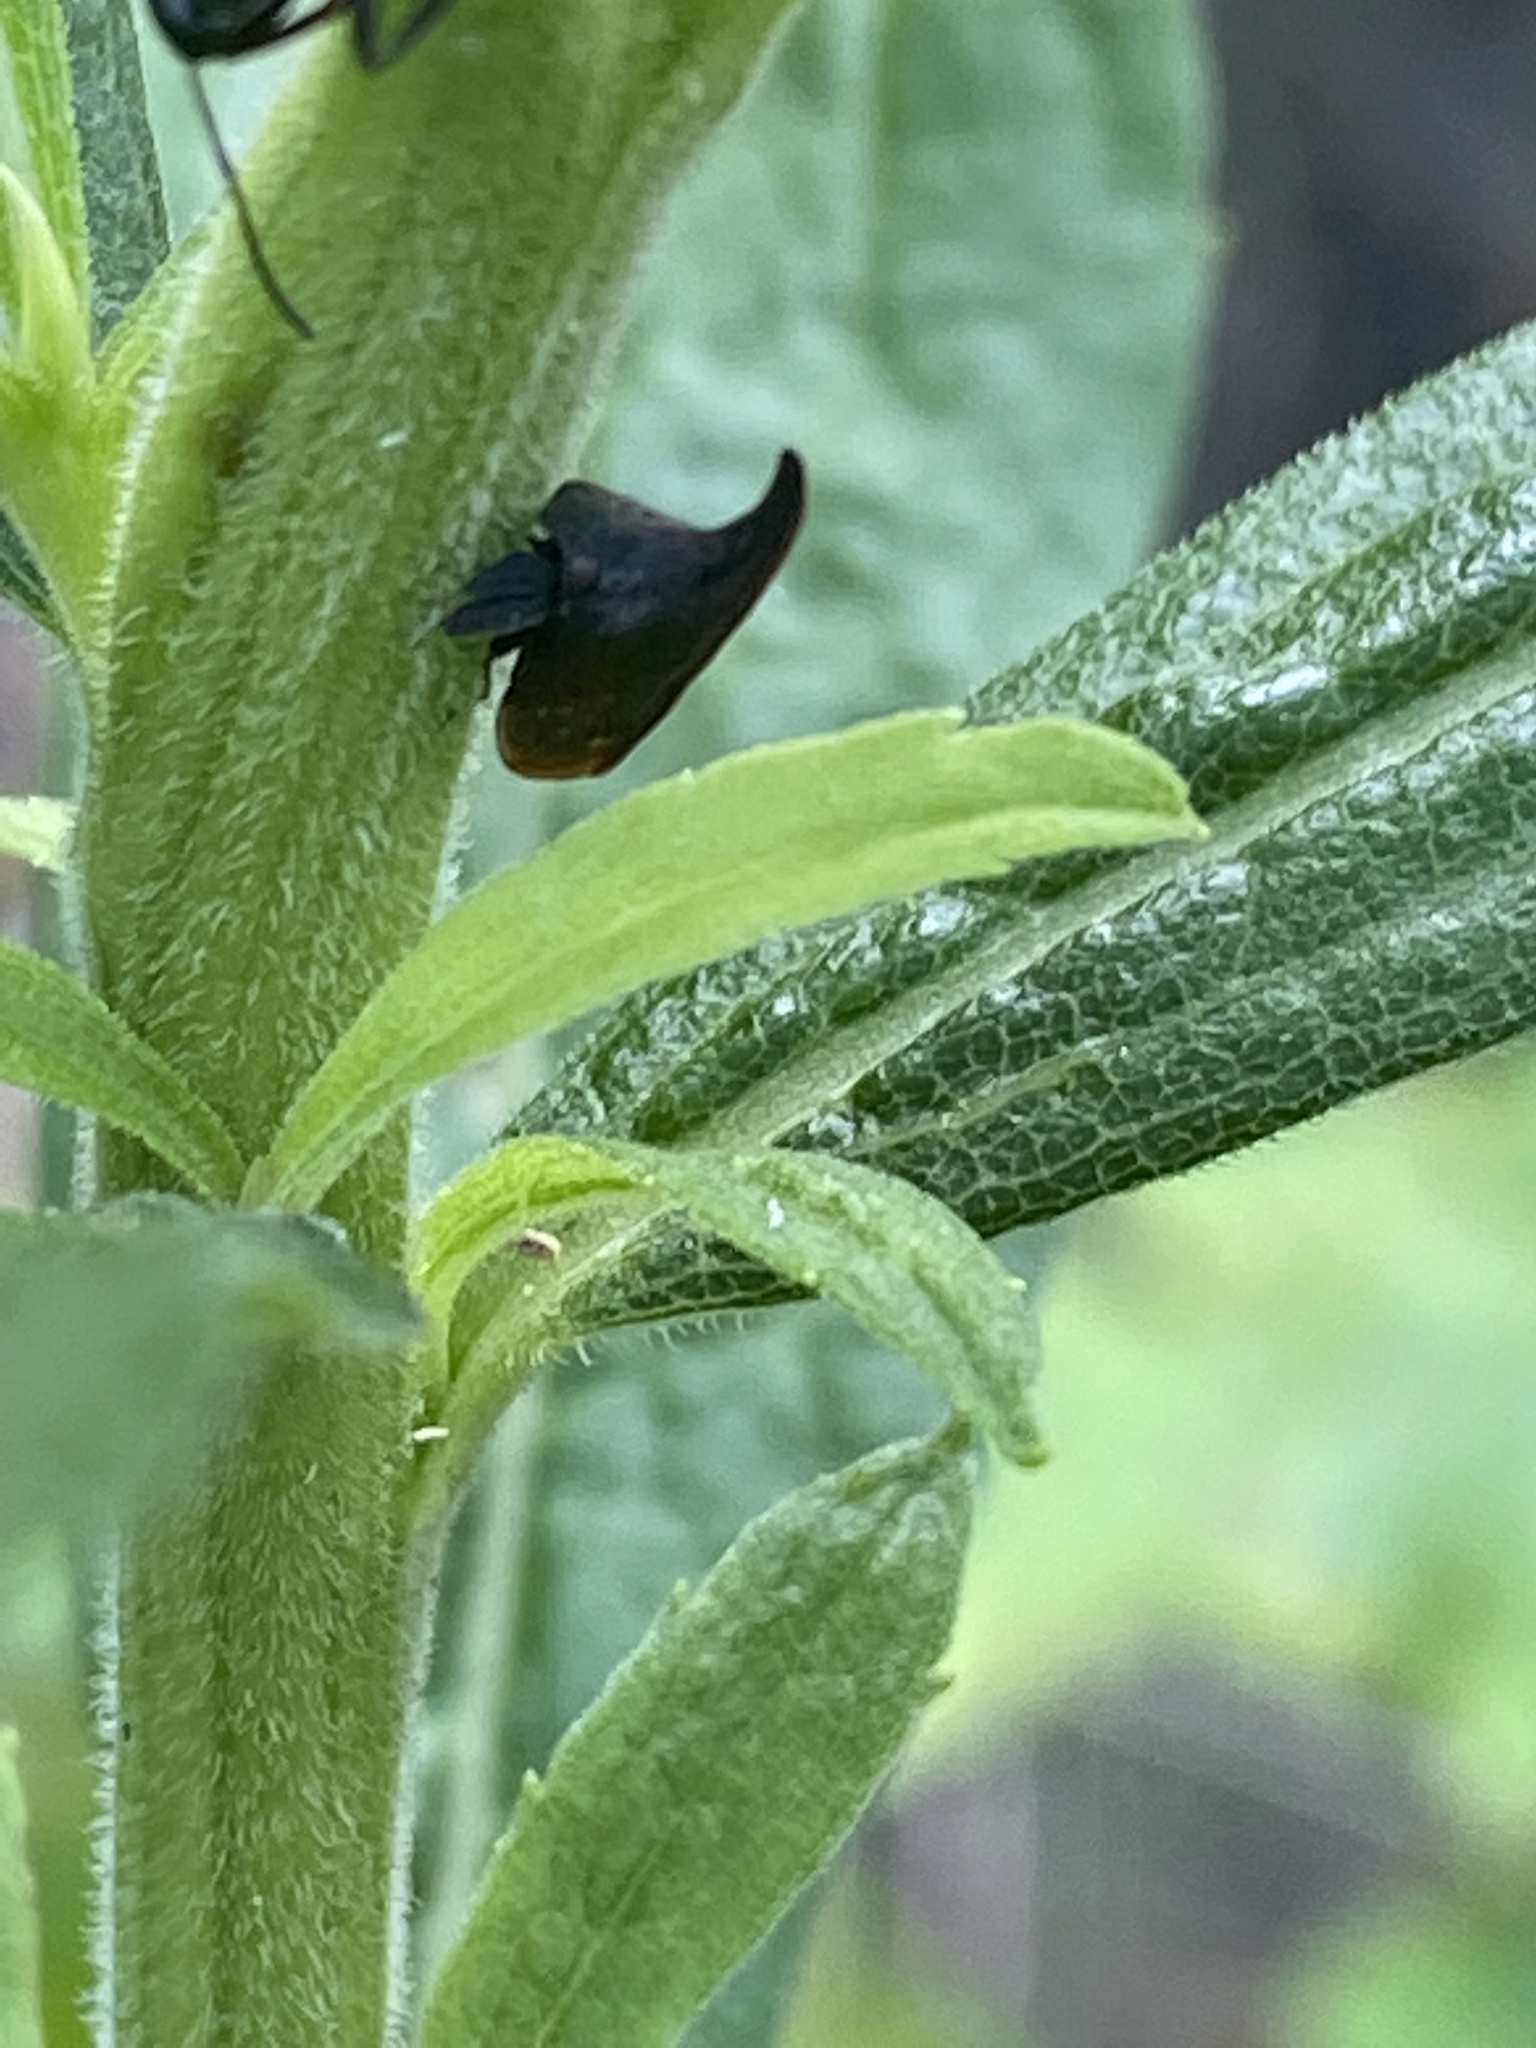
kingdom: Animalia
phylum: Arthropoda
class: Insecta
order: Hemiptera
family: Membracidae
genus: Enchenopa
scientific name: Enchenopa latipes
